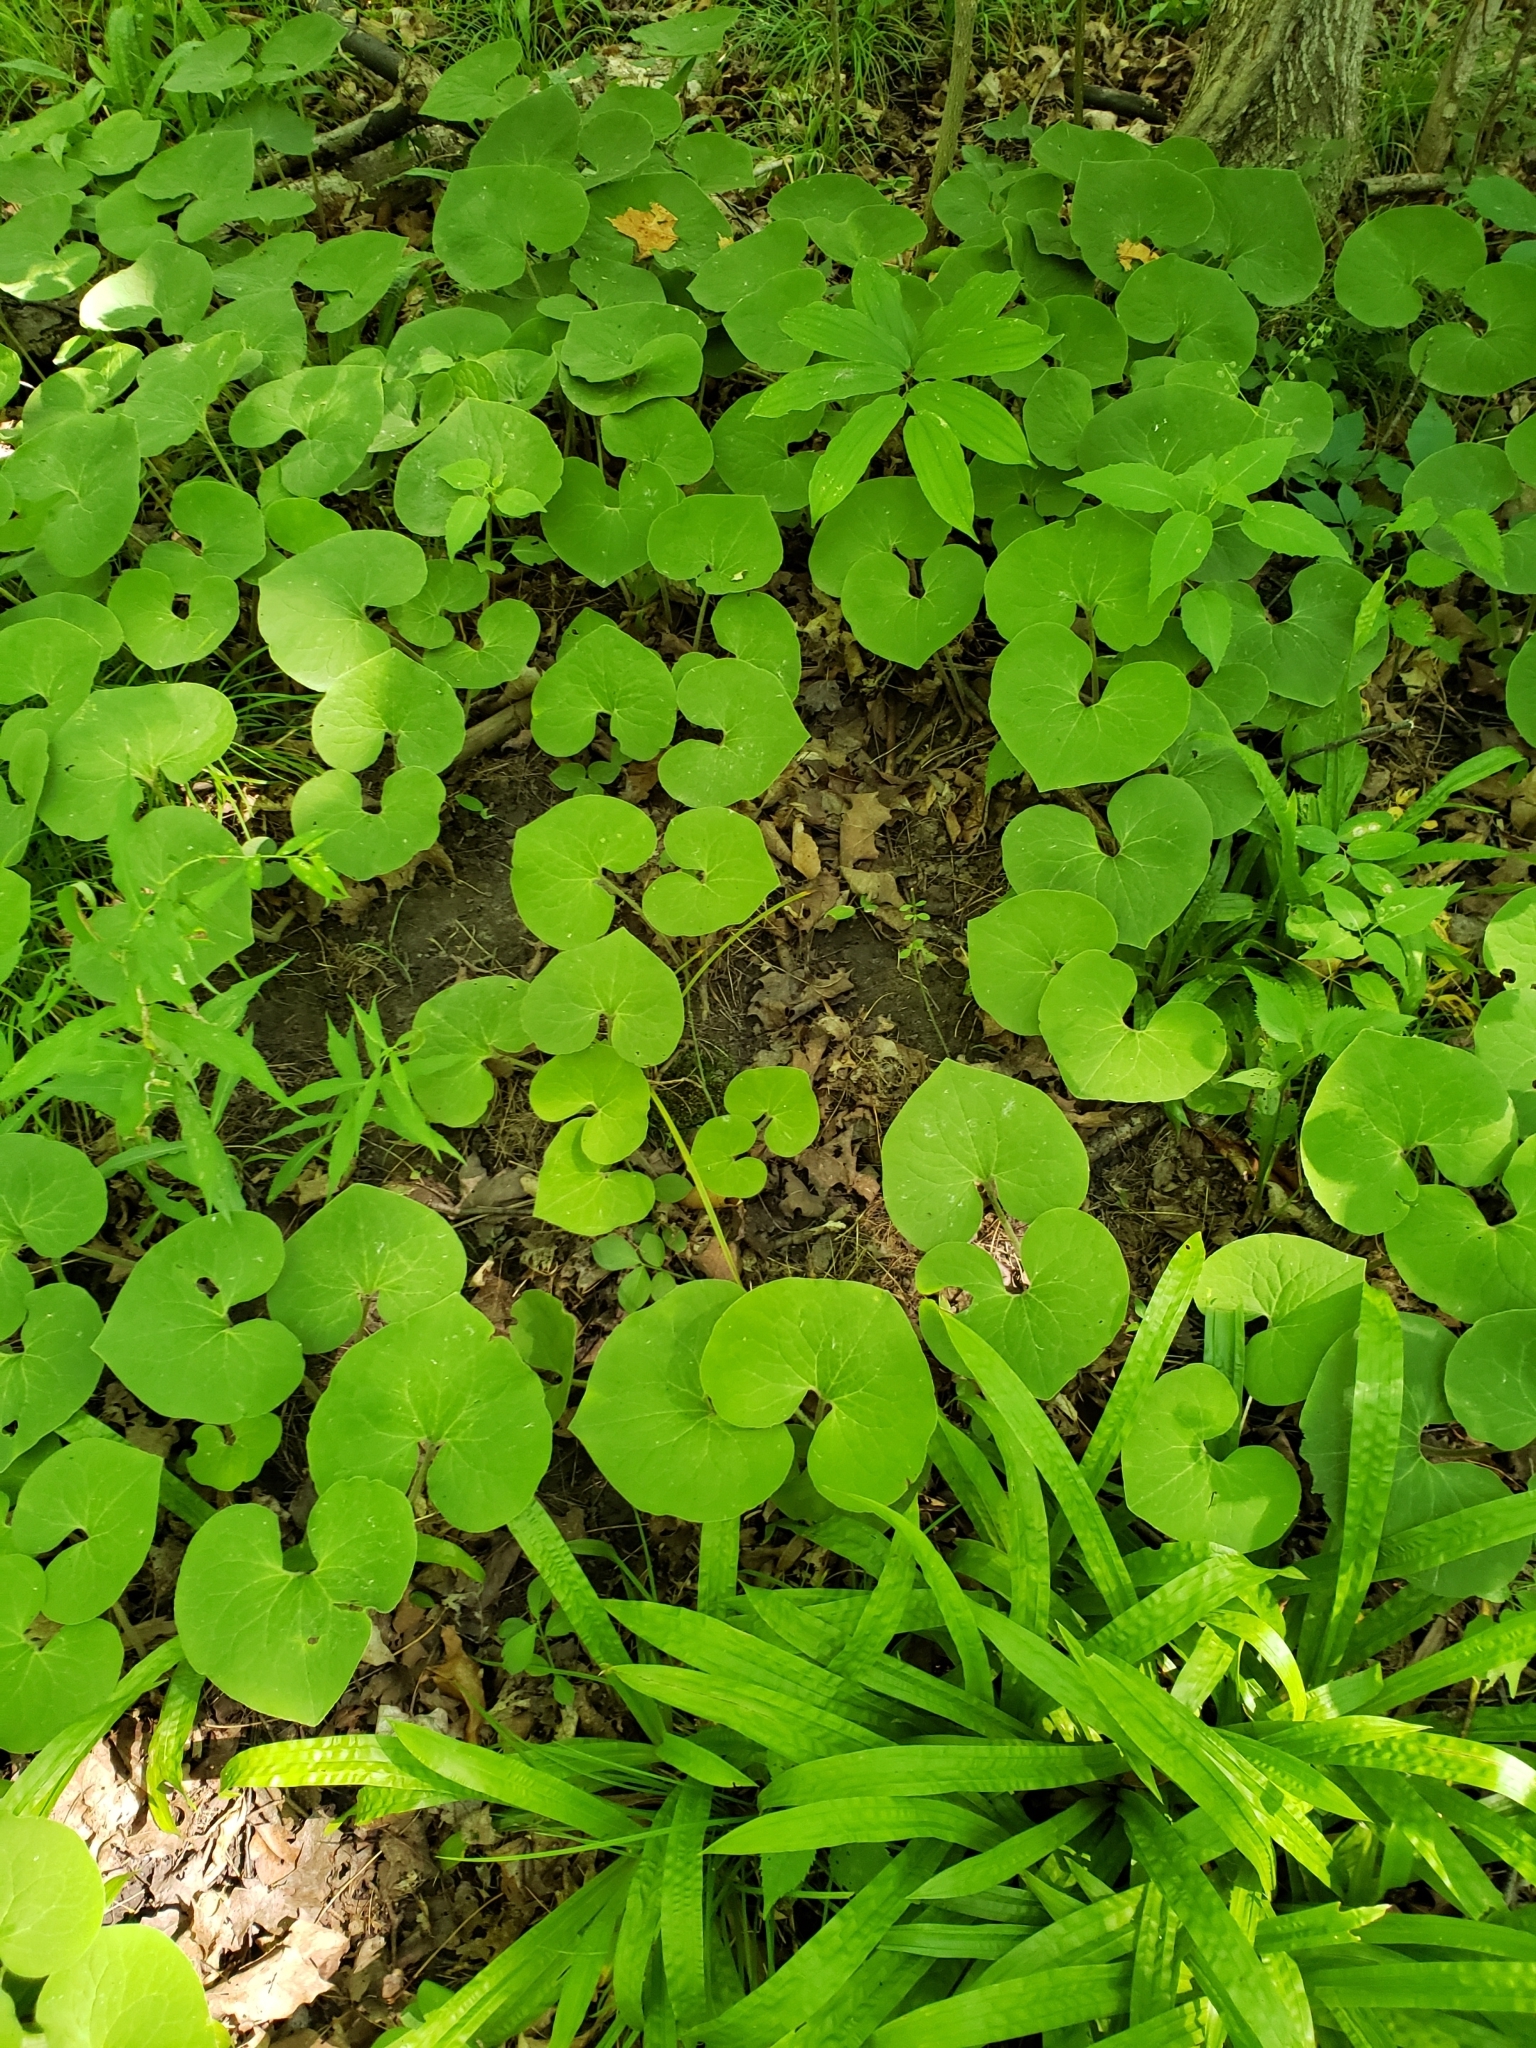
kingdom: Plantae
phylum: Tracheophyta
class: Magnoliopsida
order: Piperales
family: Aristolochiaceae
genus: Asarum
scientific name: Asarum canadense
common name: Wild ginger
